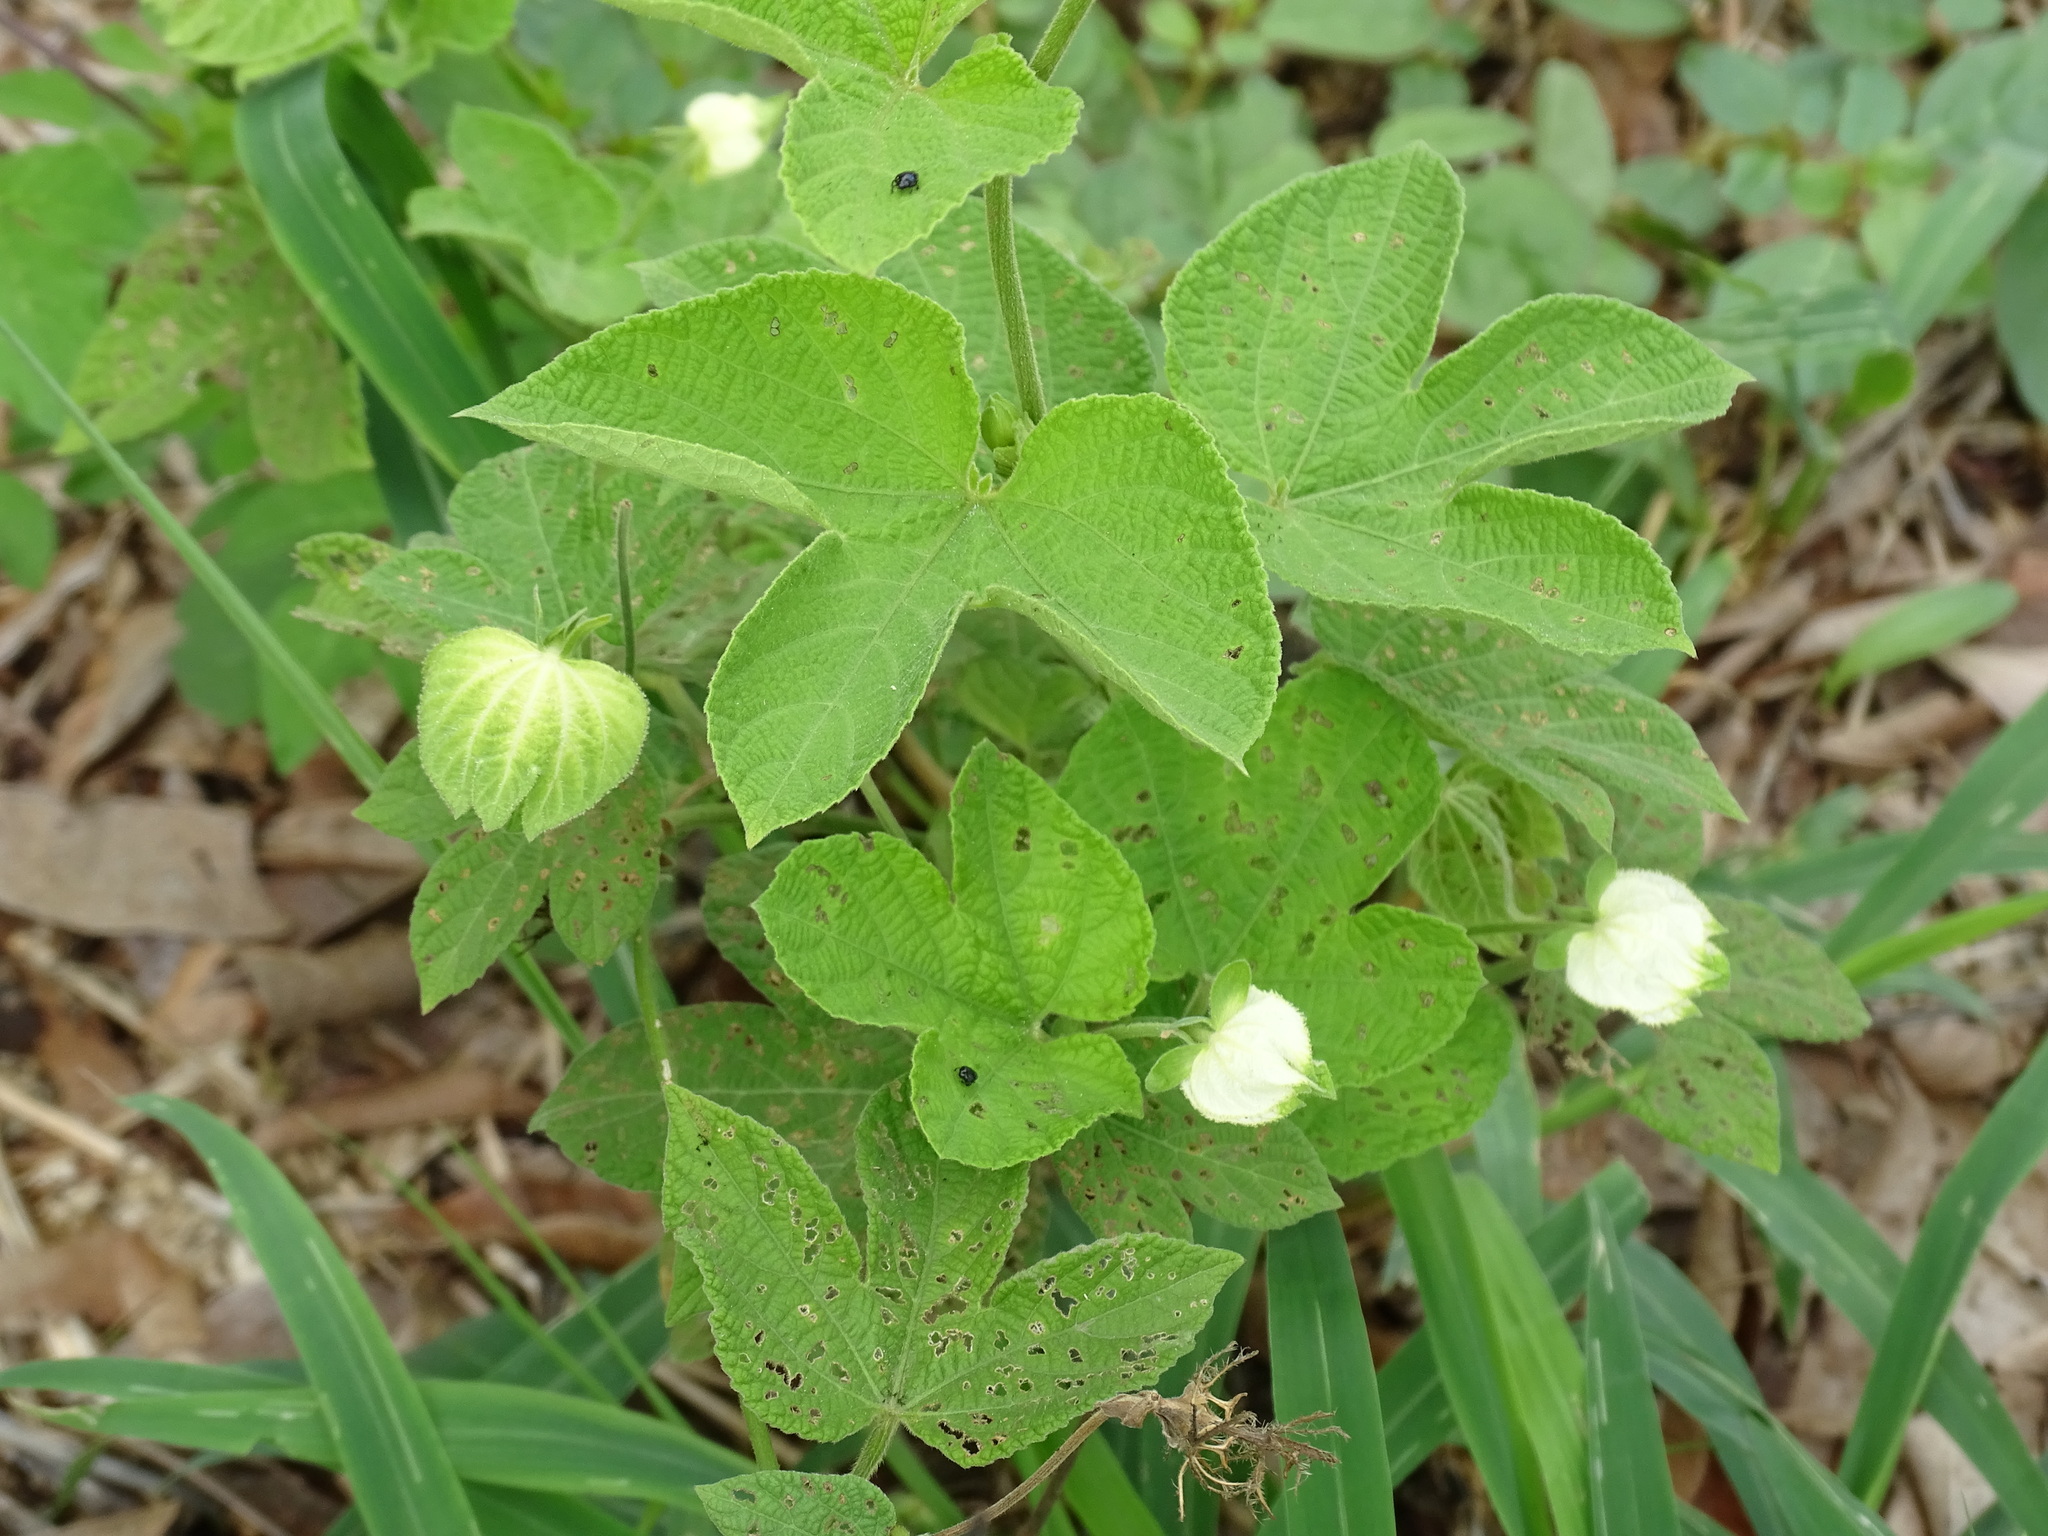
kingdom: Plantae
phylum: Tracheophyta
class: Magnoliopsida
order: Malpighiales
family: Euphorbiaceae
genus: Dalechampia
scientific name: Dalechampia scandens
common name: Spurgecreeper
